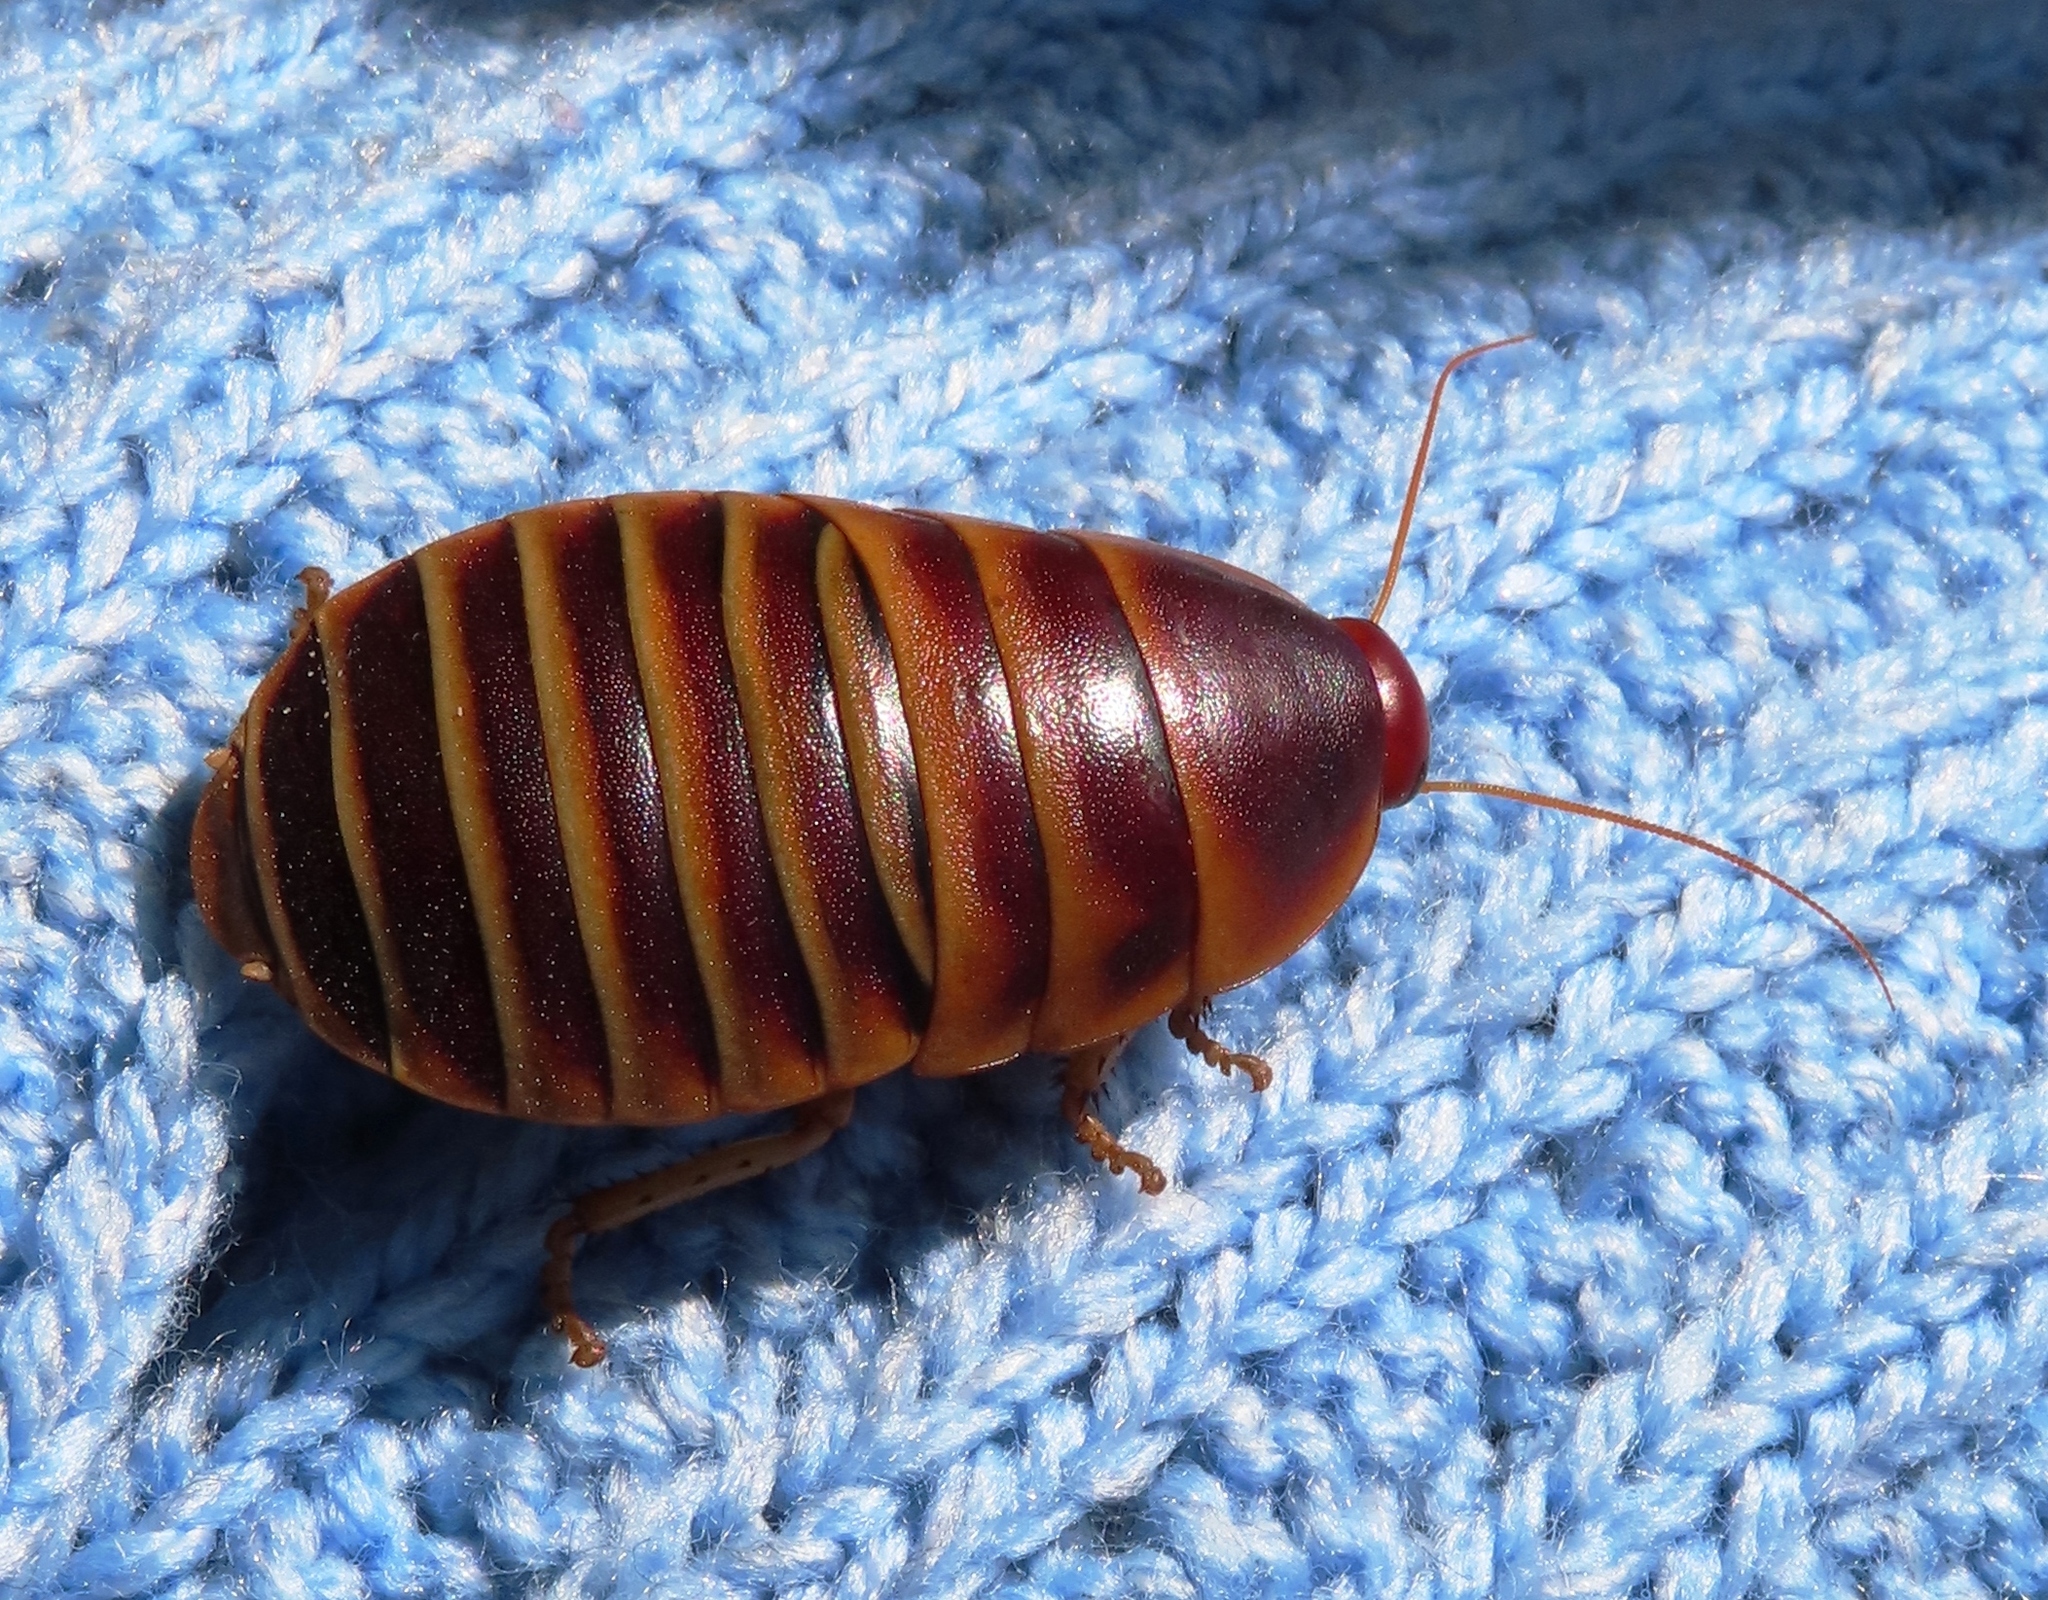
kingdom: Animalia
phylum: Arthropoda
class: Insecta
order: Blattodea
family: Blaberidae
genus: Aptera
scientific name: Aptera fusca
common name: Cape mountain cockroach
